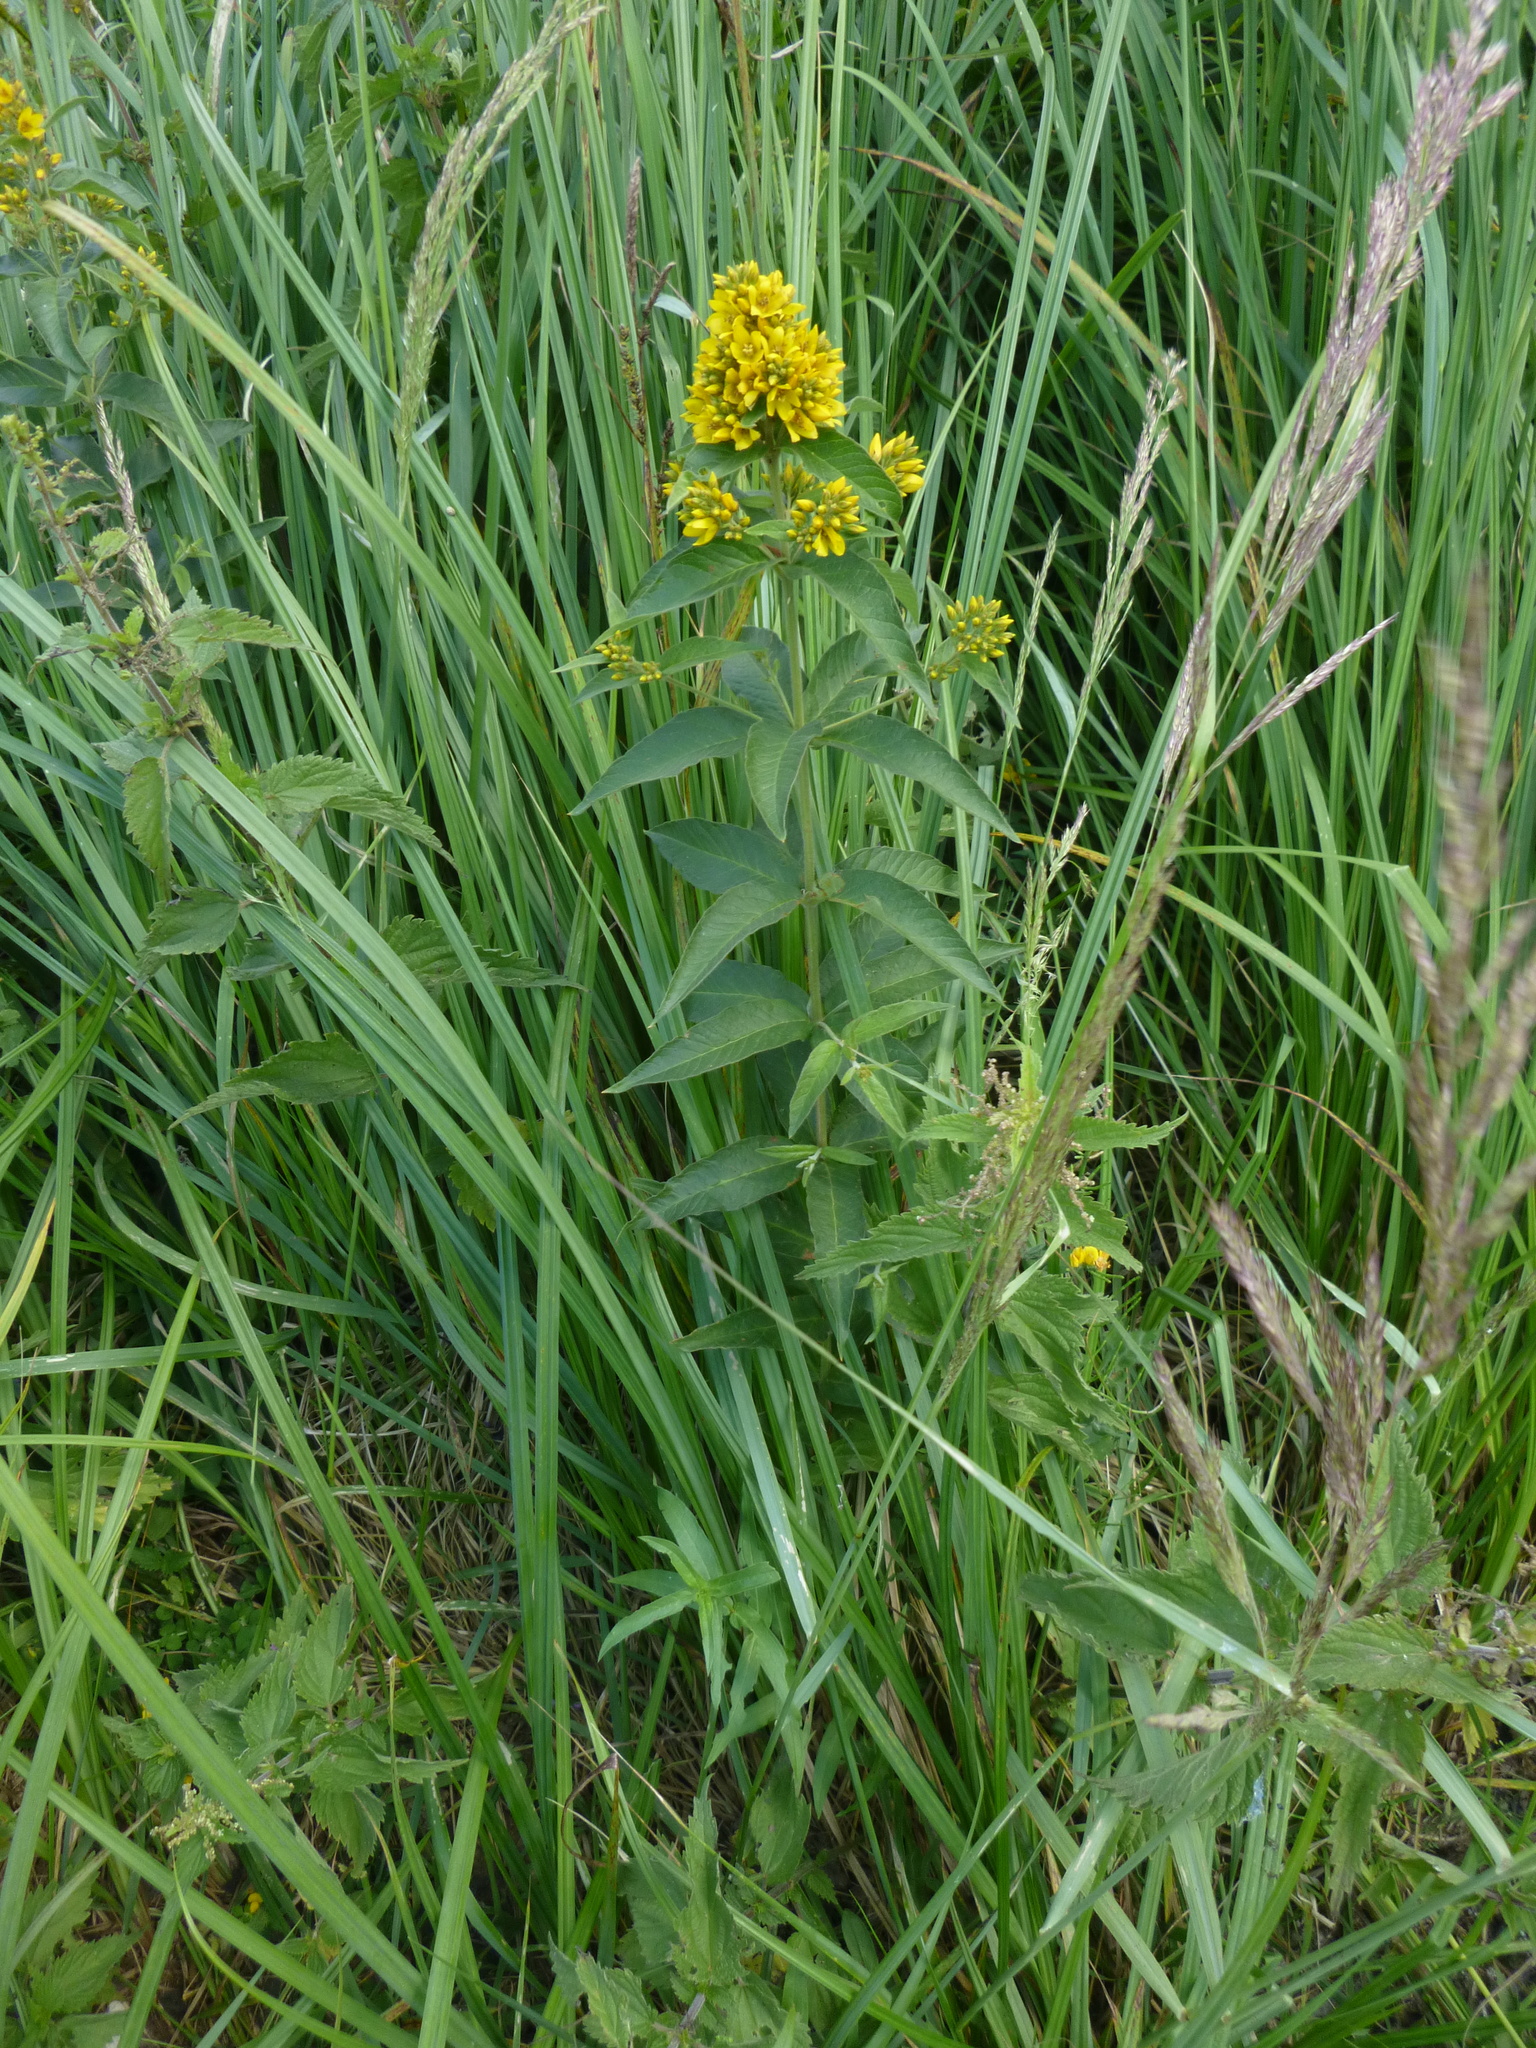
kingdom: Plantae
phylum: Tracheophyta
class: Magnoliopsida
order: Ericales
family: Primulaceae
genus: Lysimachia
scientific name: Lysimachia vulgaris
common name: Yellow loosestrife
